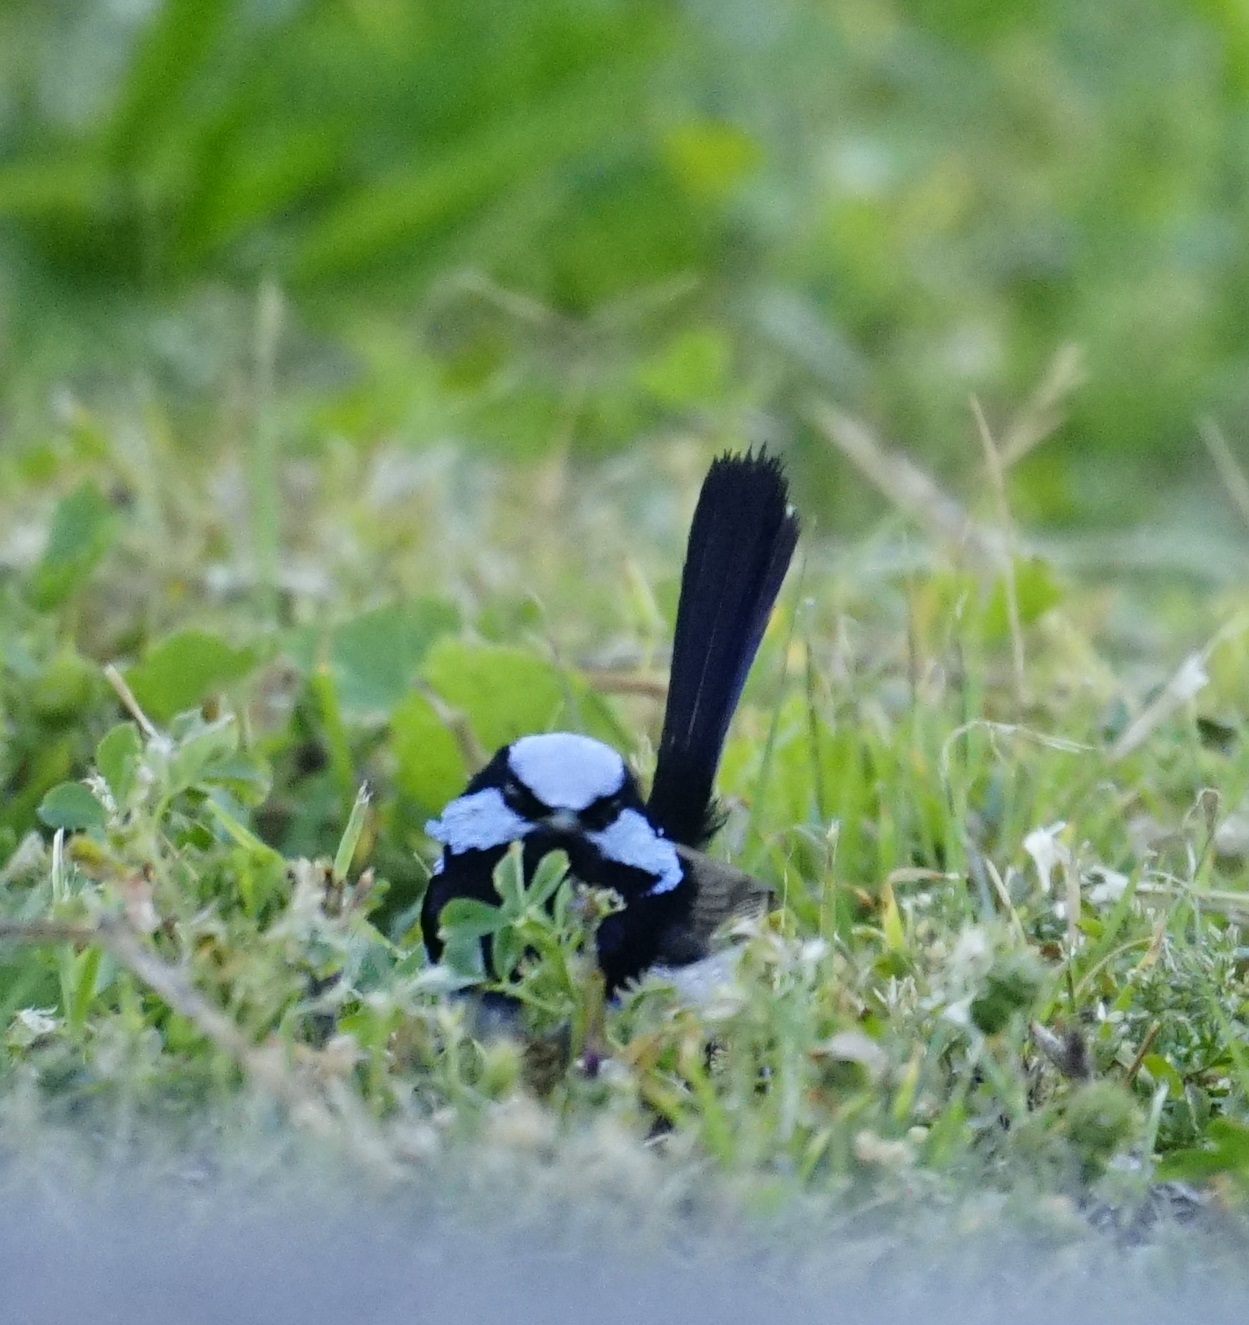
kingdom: Animalia
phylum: Chordata
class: Aves
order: Passeriformes
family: Maluridae
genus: Malurus
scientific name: Malurus cyaneus
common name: Superb fairywren
